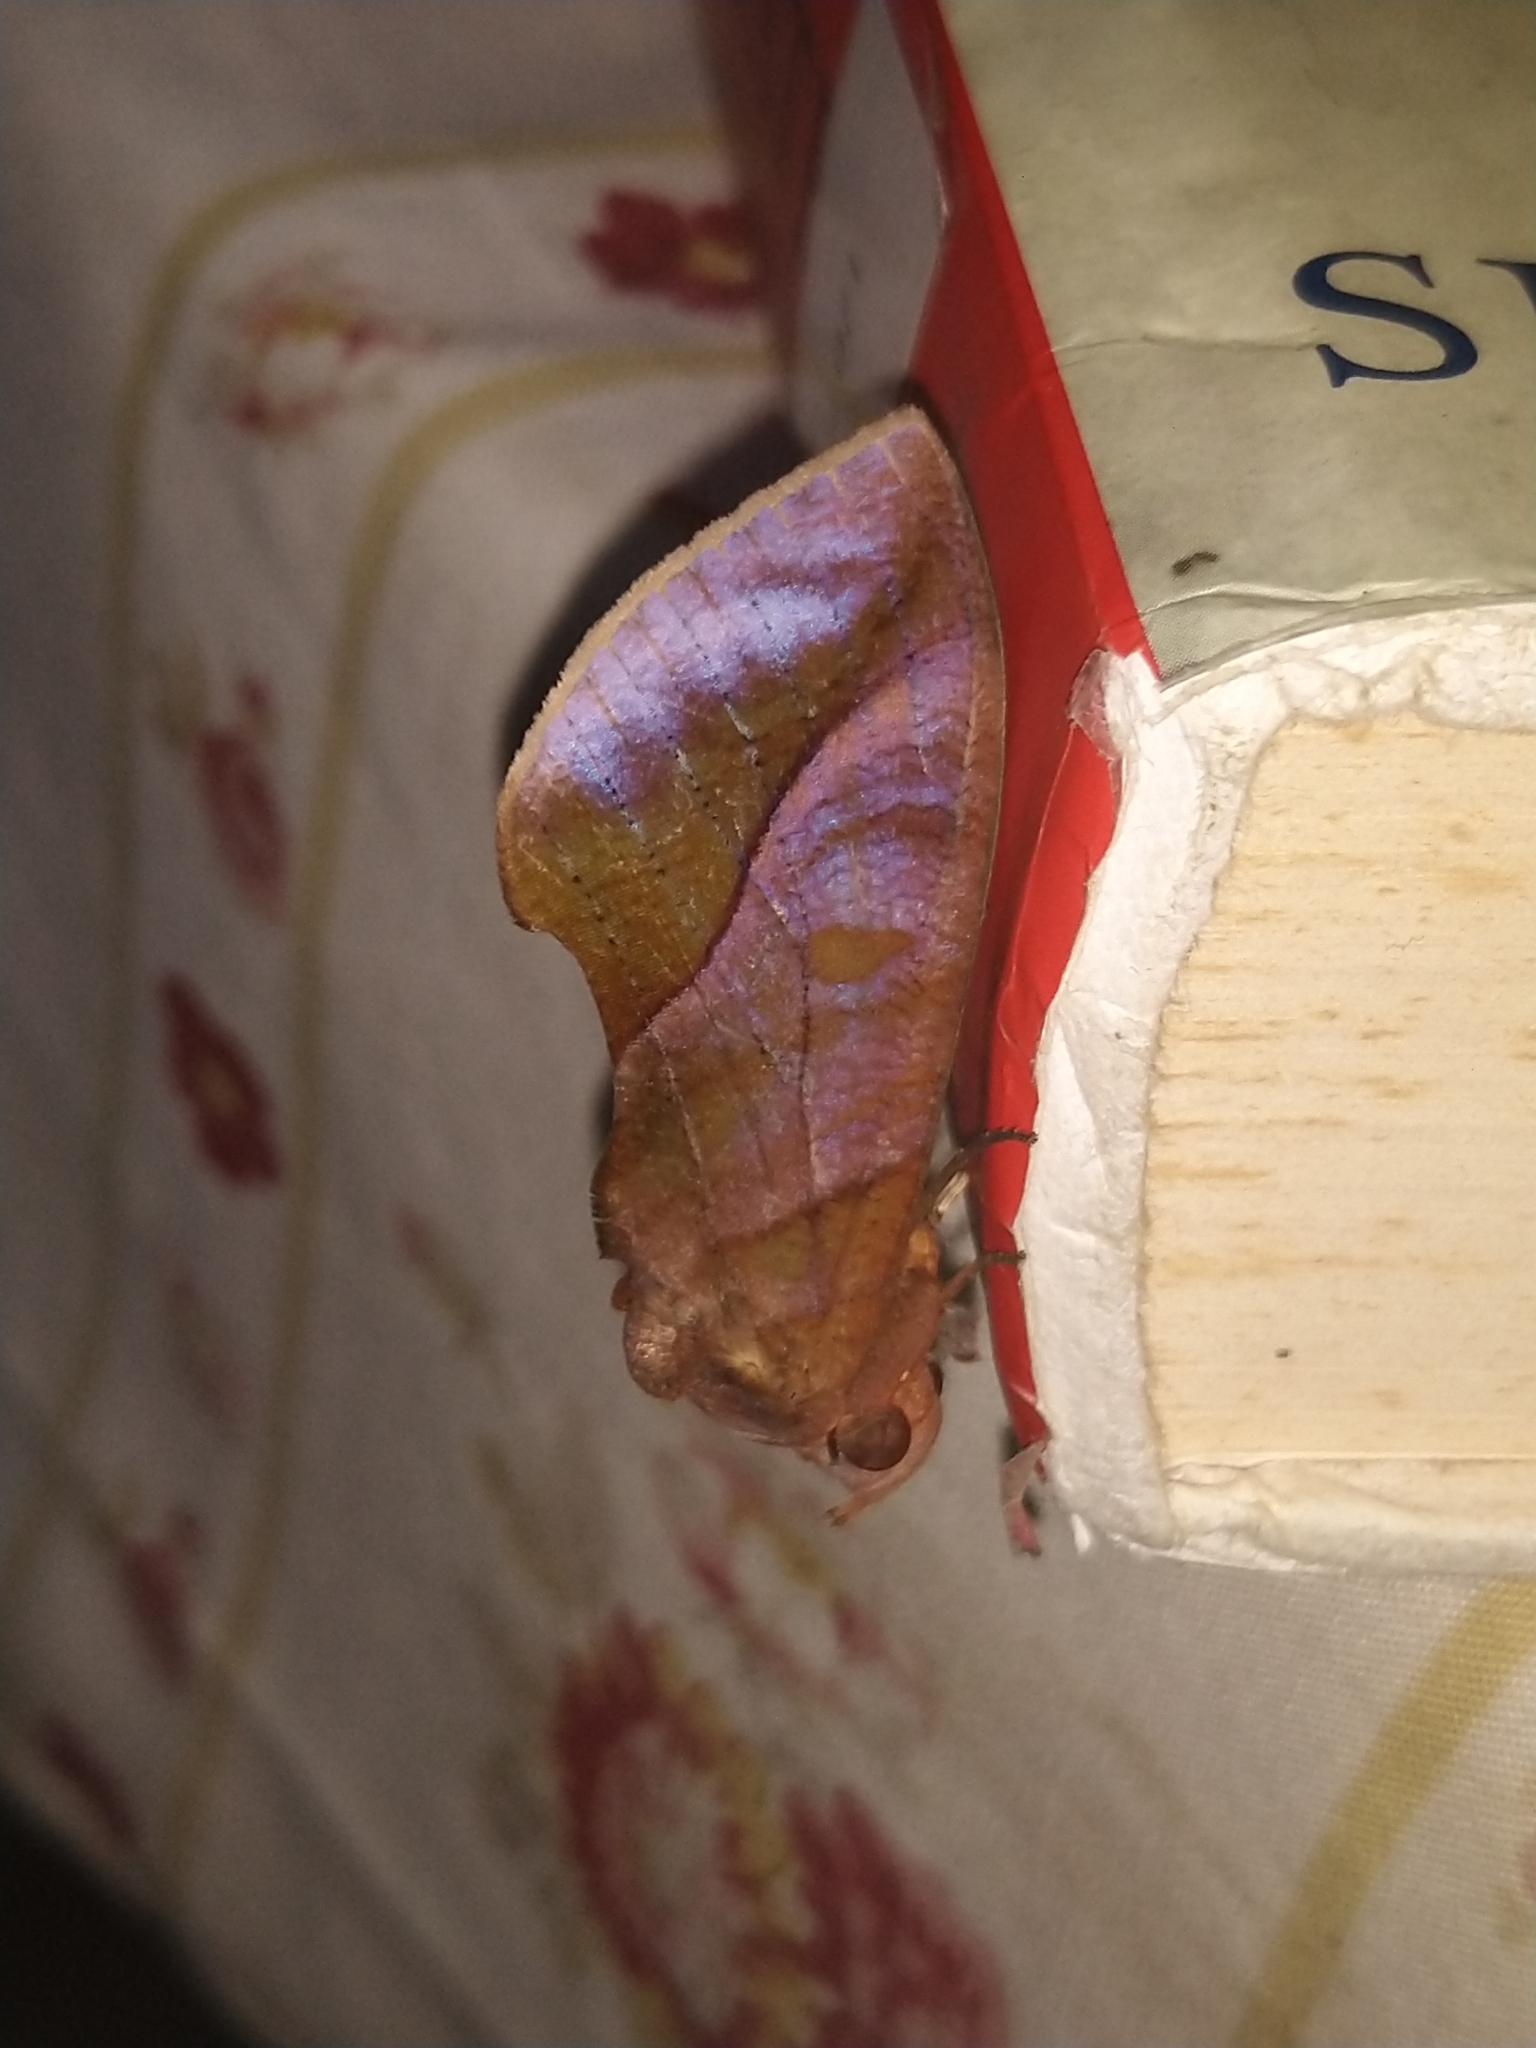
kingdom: Animalia
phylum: Arthropoda
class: Insecta
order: Lepidoptera
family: Erebidae
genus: Eudocima
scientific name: Eudocima homaena
